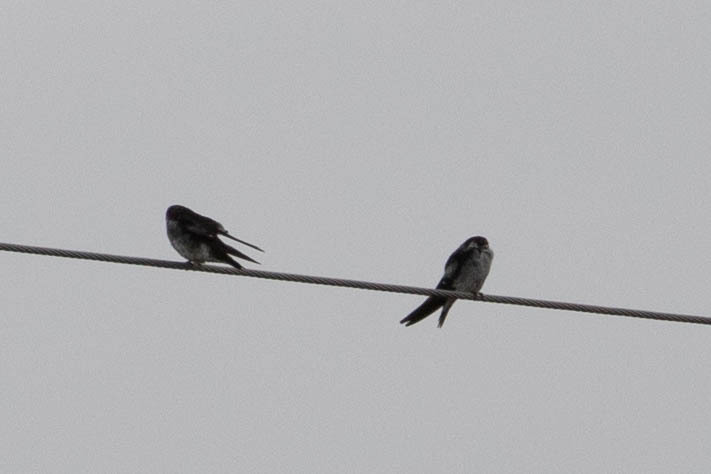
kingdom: Animalia
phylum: Chordata
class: Aves
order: Passeriformes
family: Hirundinidae
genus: Hirundo
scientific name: Hirundo rustica
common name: Barn swallow
